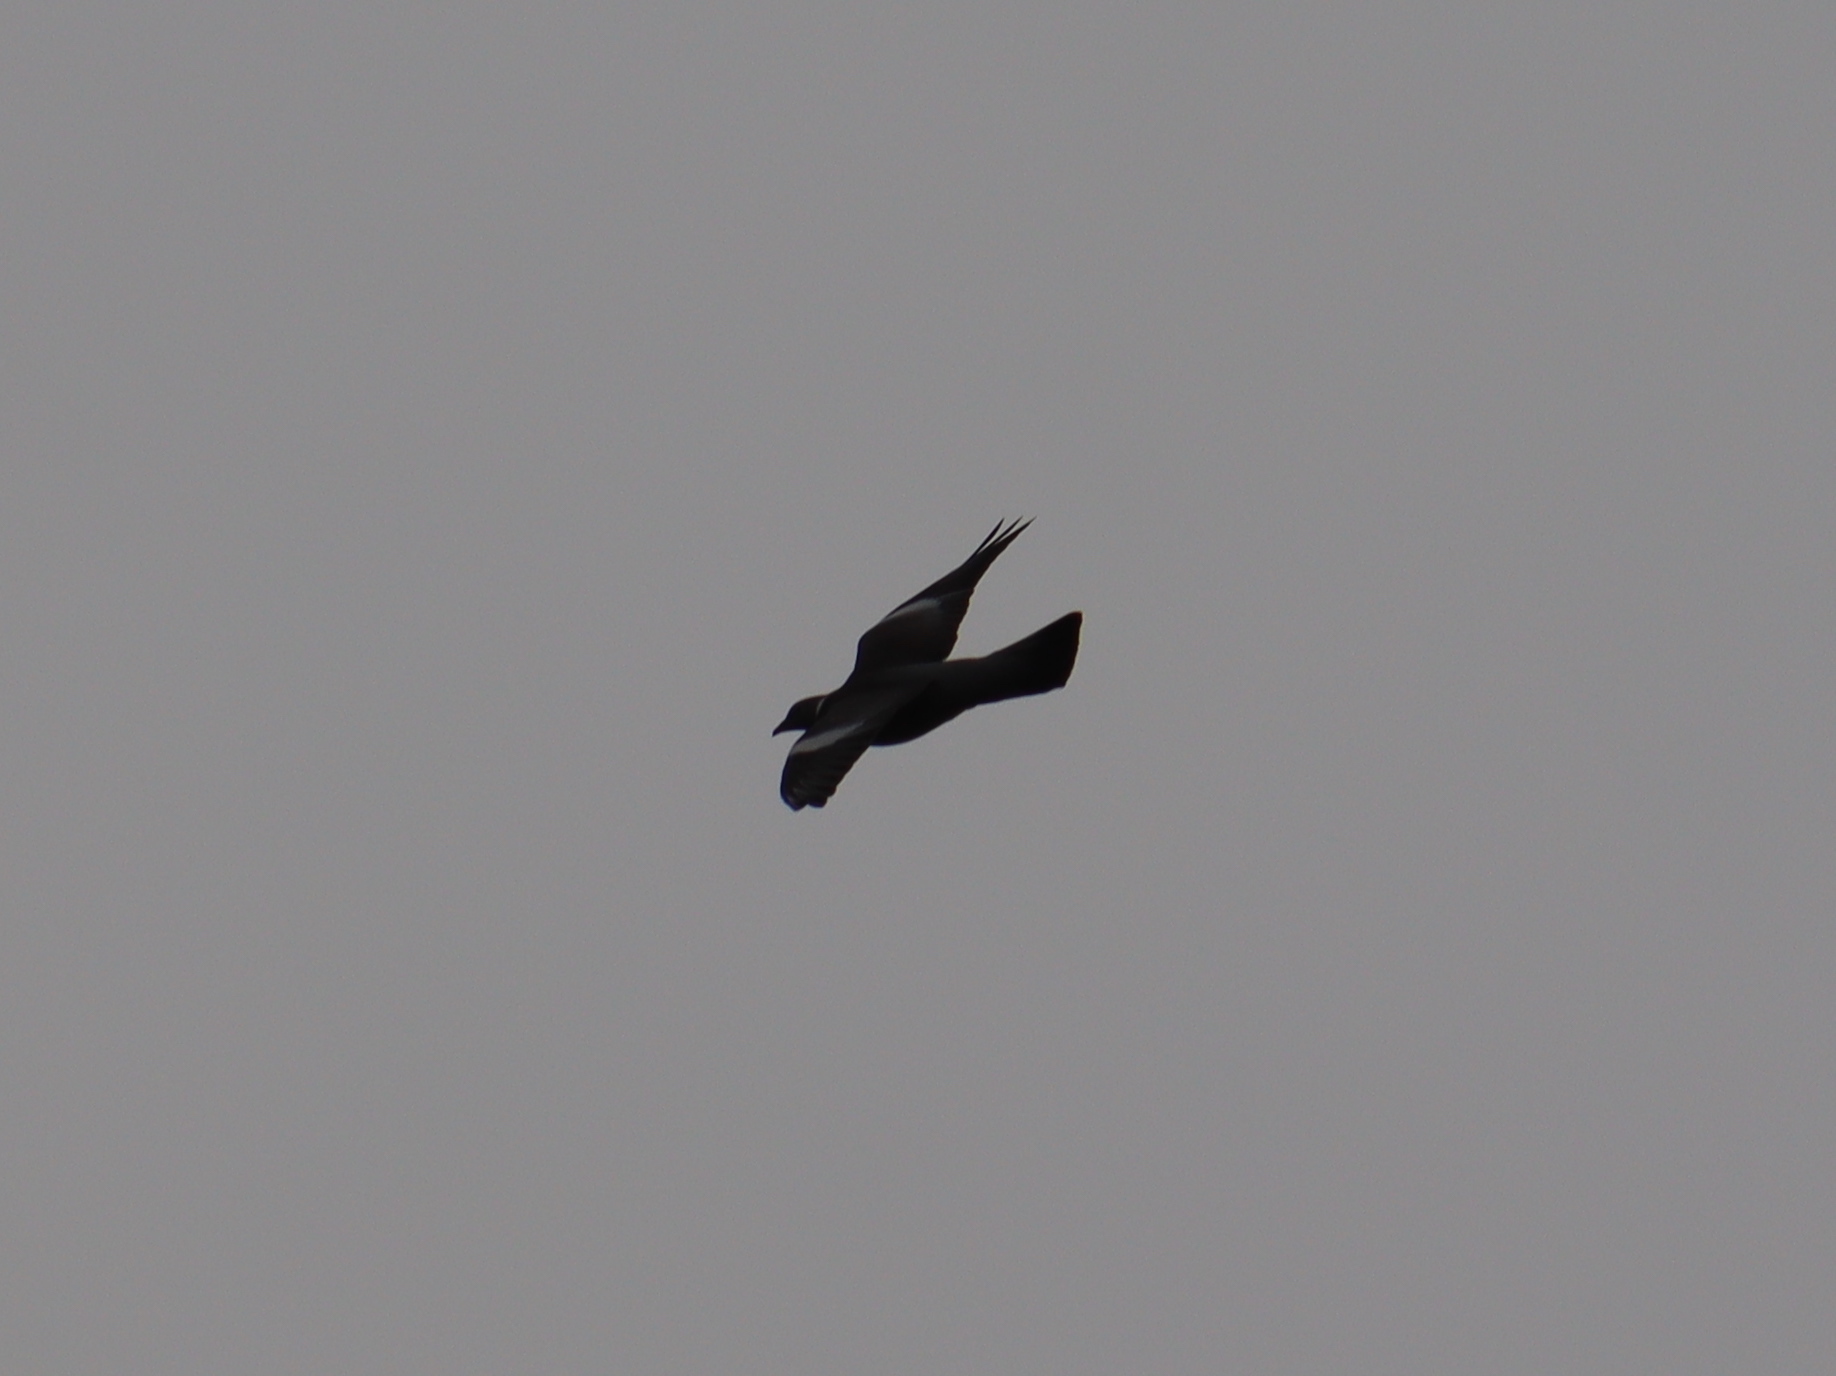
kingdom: Animalia
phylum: Chordata
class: Aves
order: Columbiformes
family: Columbidae
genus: Columba
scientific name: Columba palumbus
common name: Common wood pigeon
